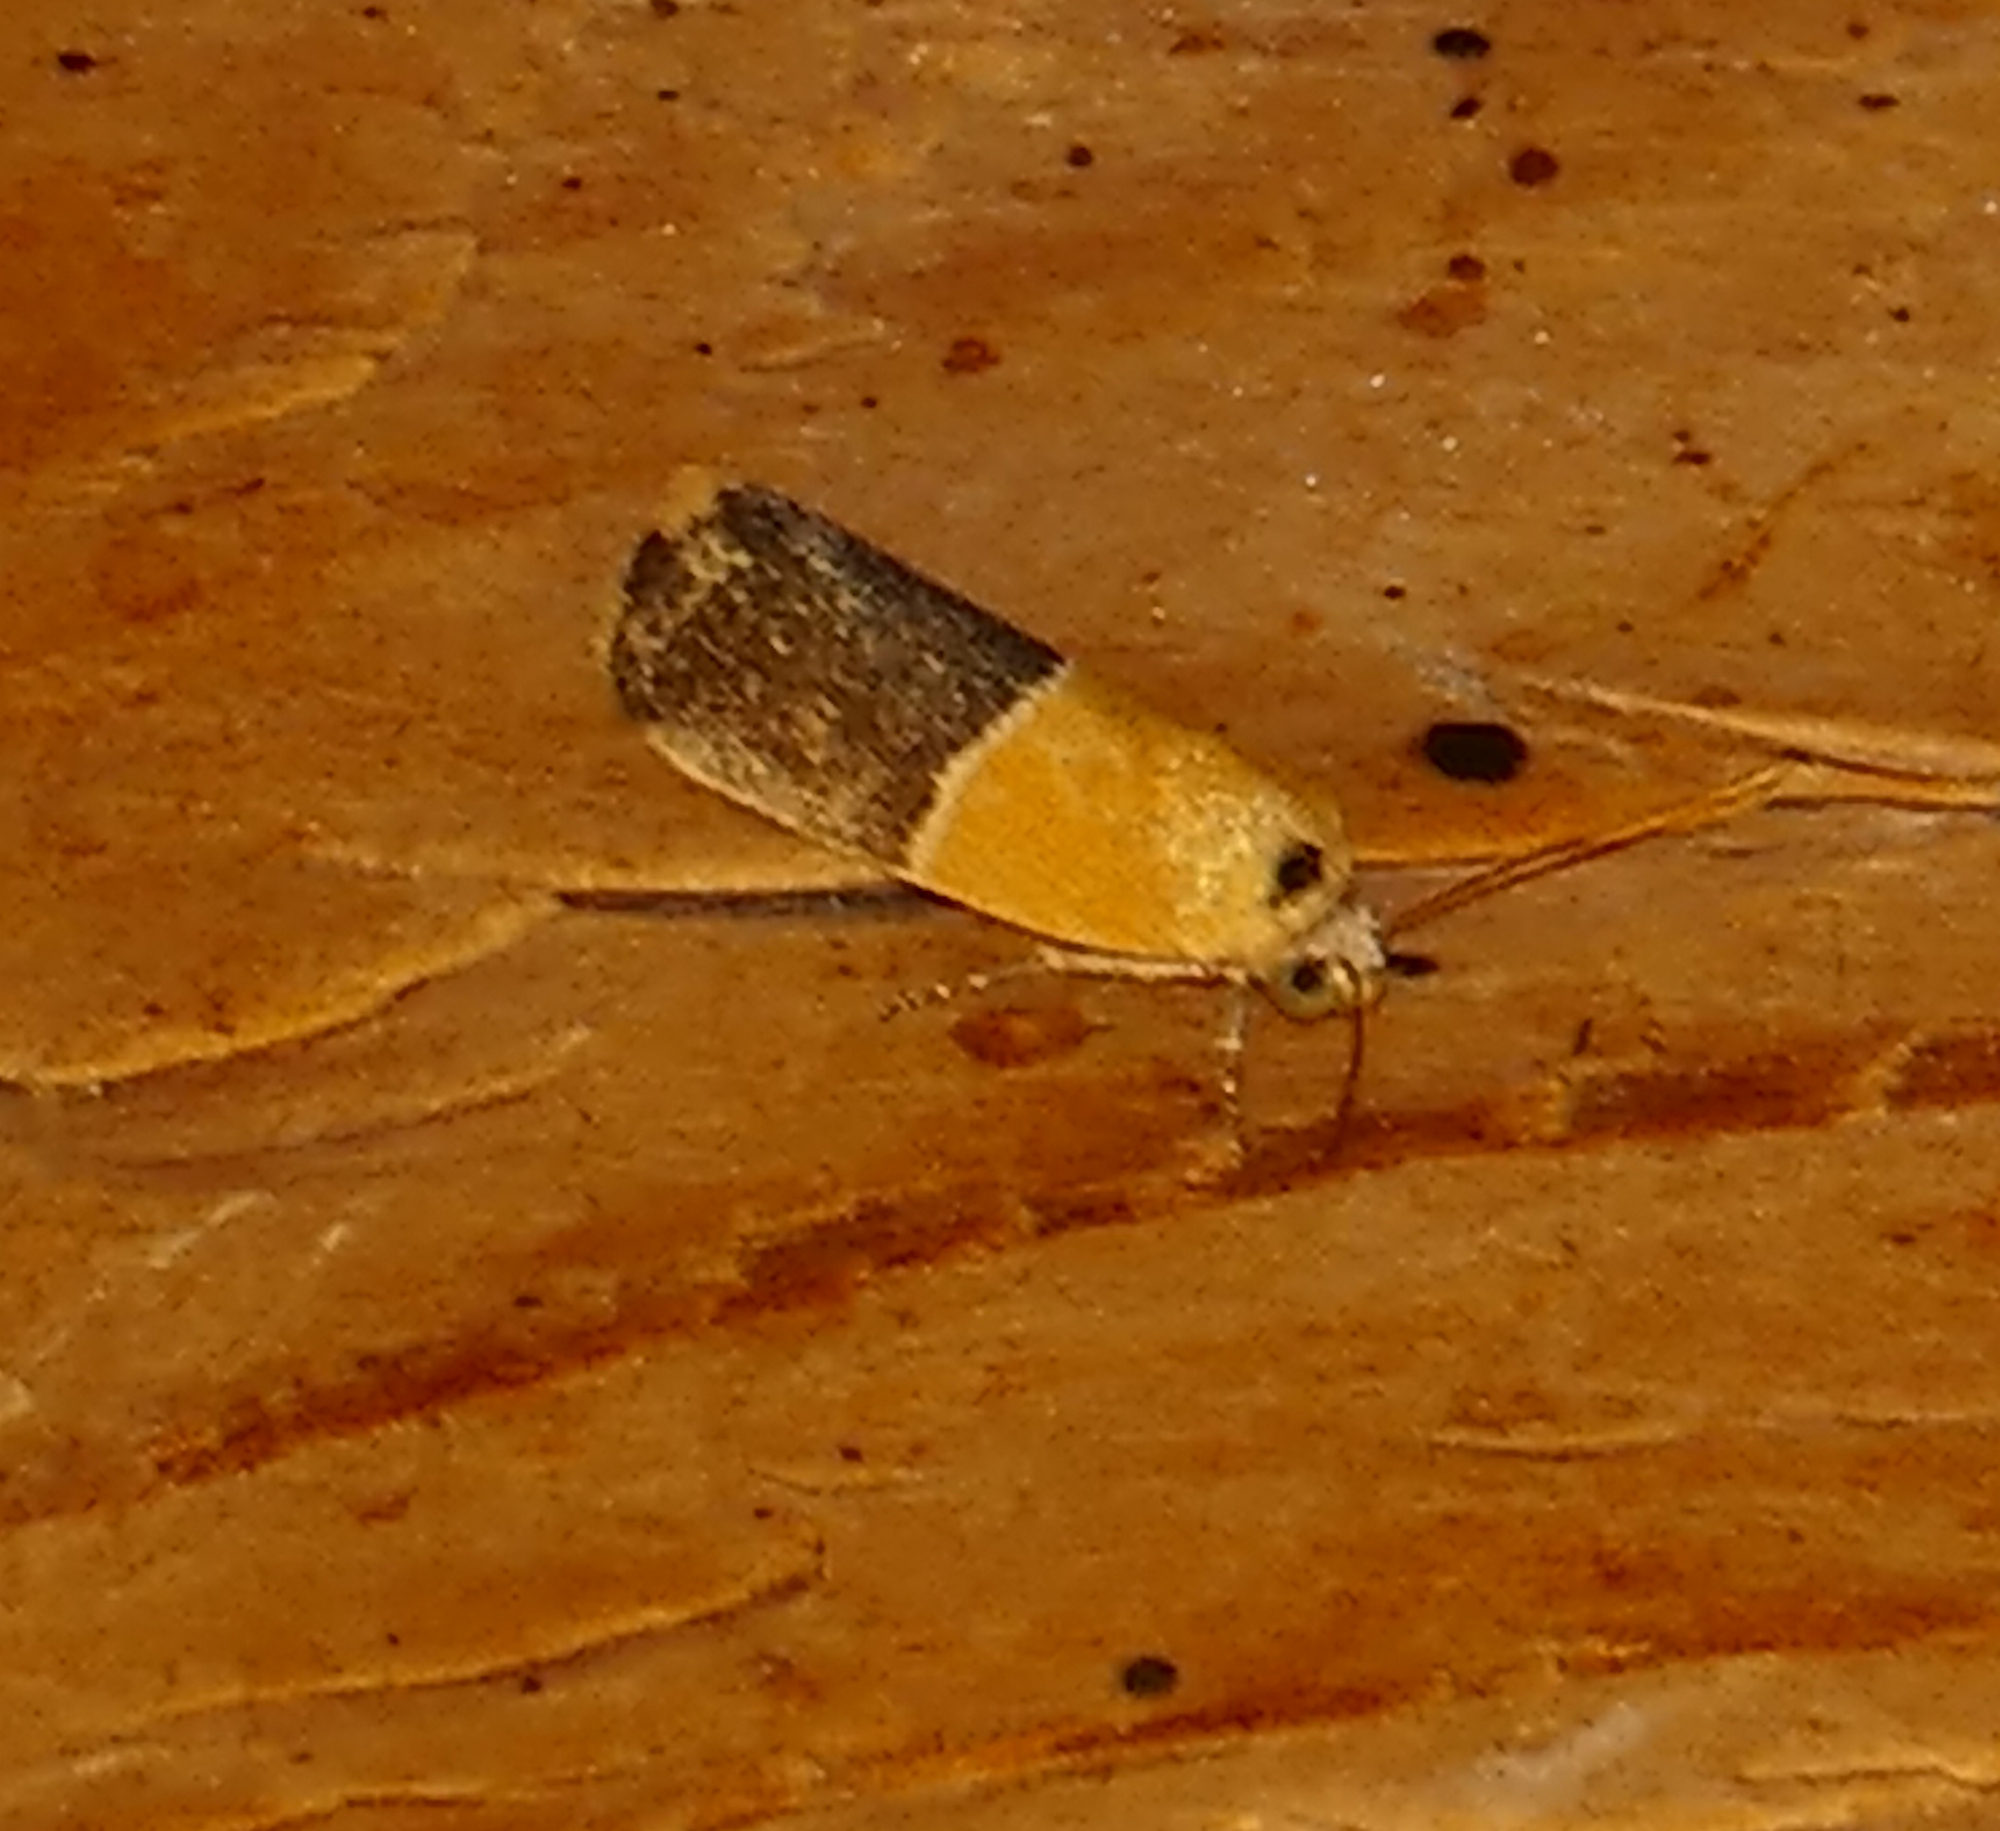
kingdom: Animalia
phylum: Arthropoda
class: Insecta
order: Lepidoptera
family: Noctuidae
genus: Acontia
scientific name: Acontia clausula
